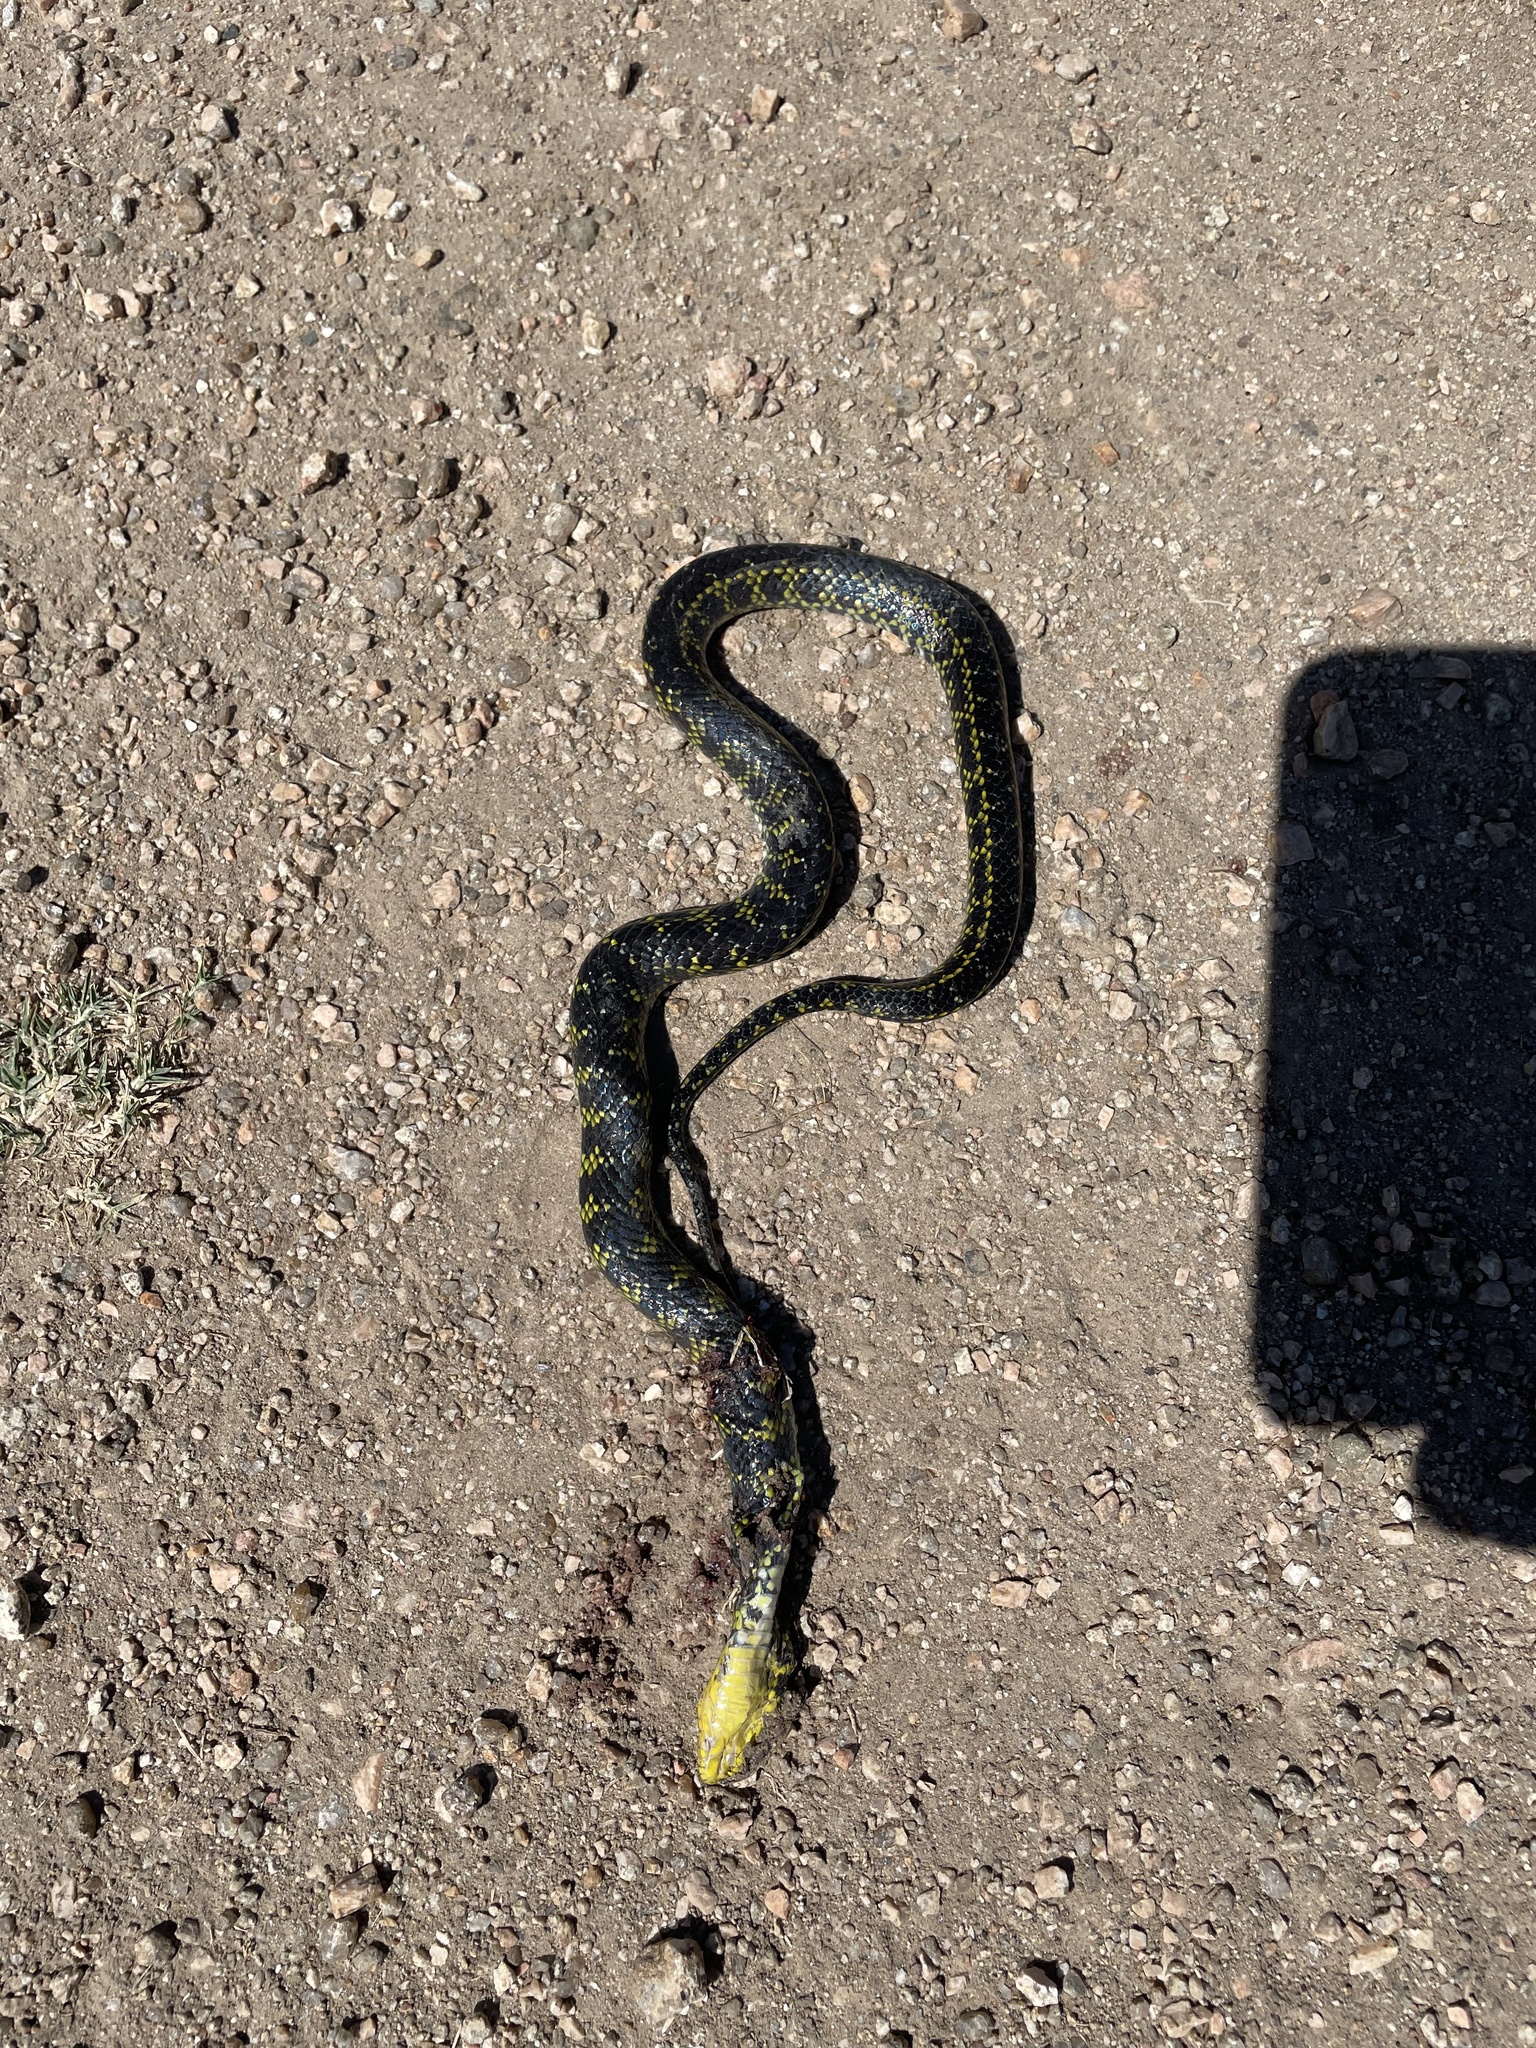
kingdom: Animalia
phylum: Chordata
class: Squamata
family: Colubridae
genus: Erythrolamprus
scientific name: Erythrolamprus poecilogyrus
